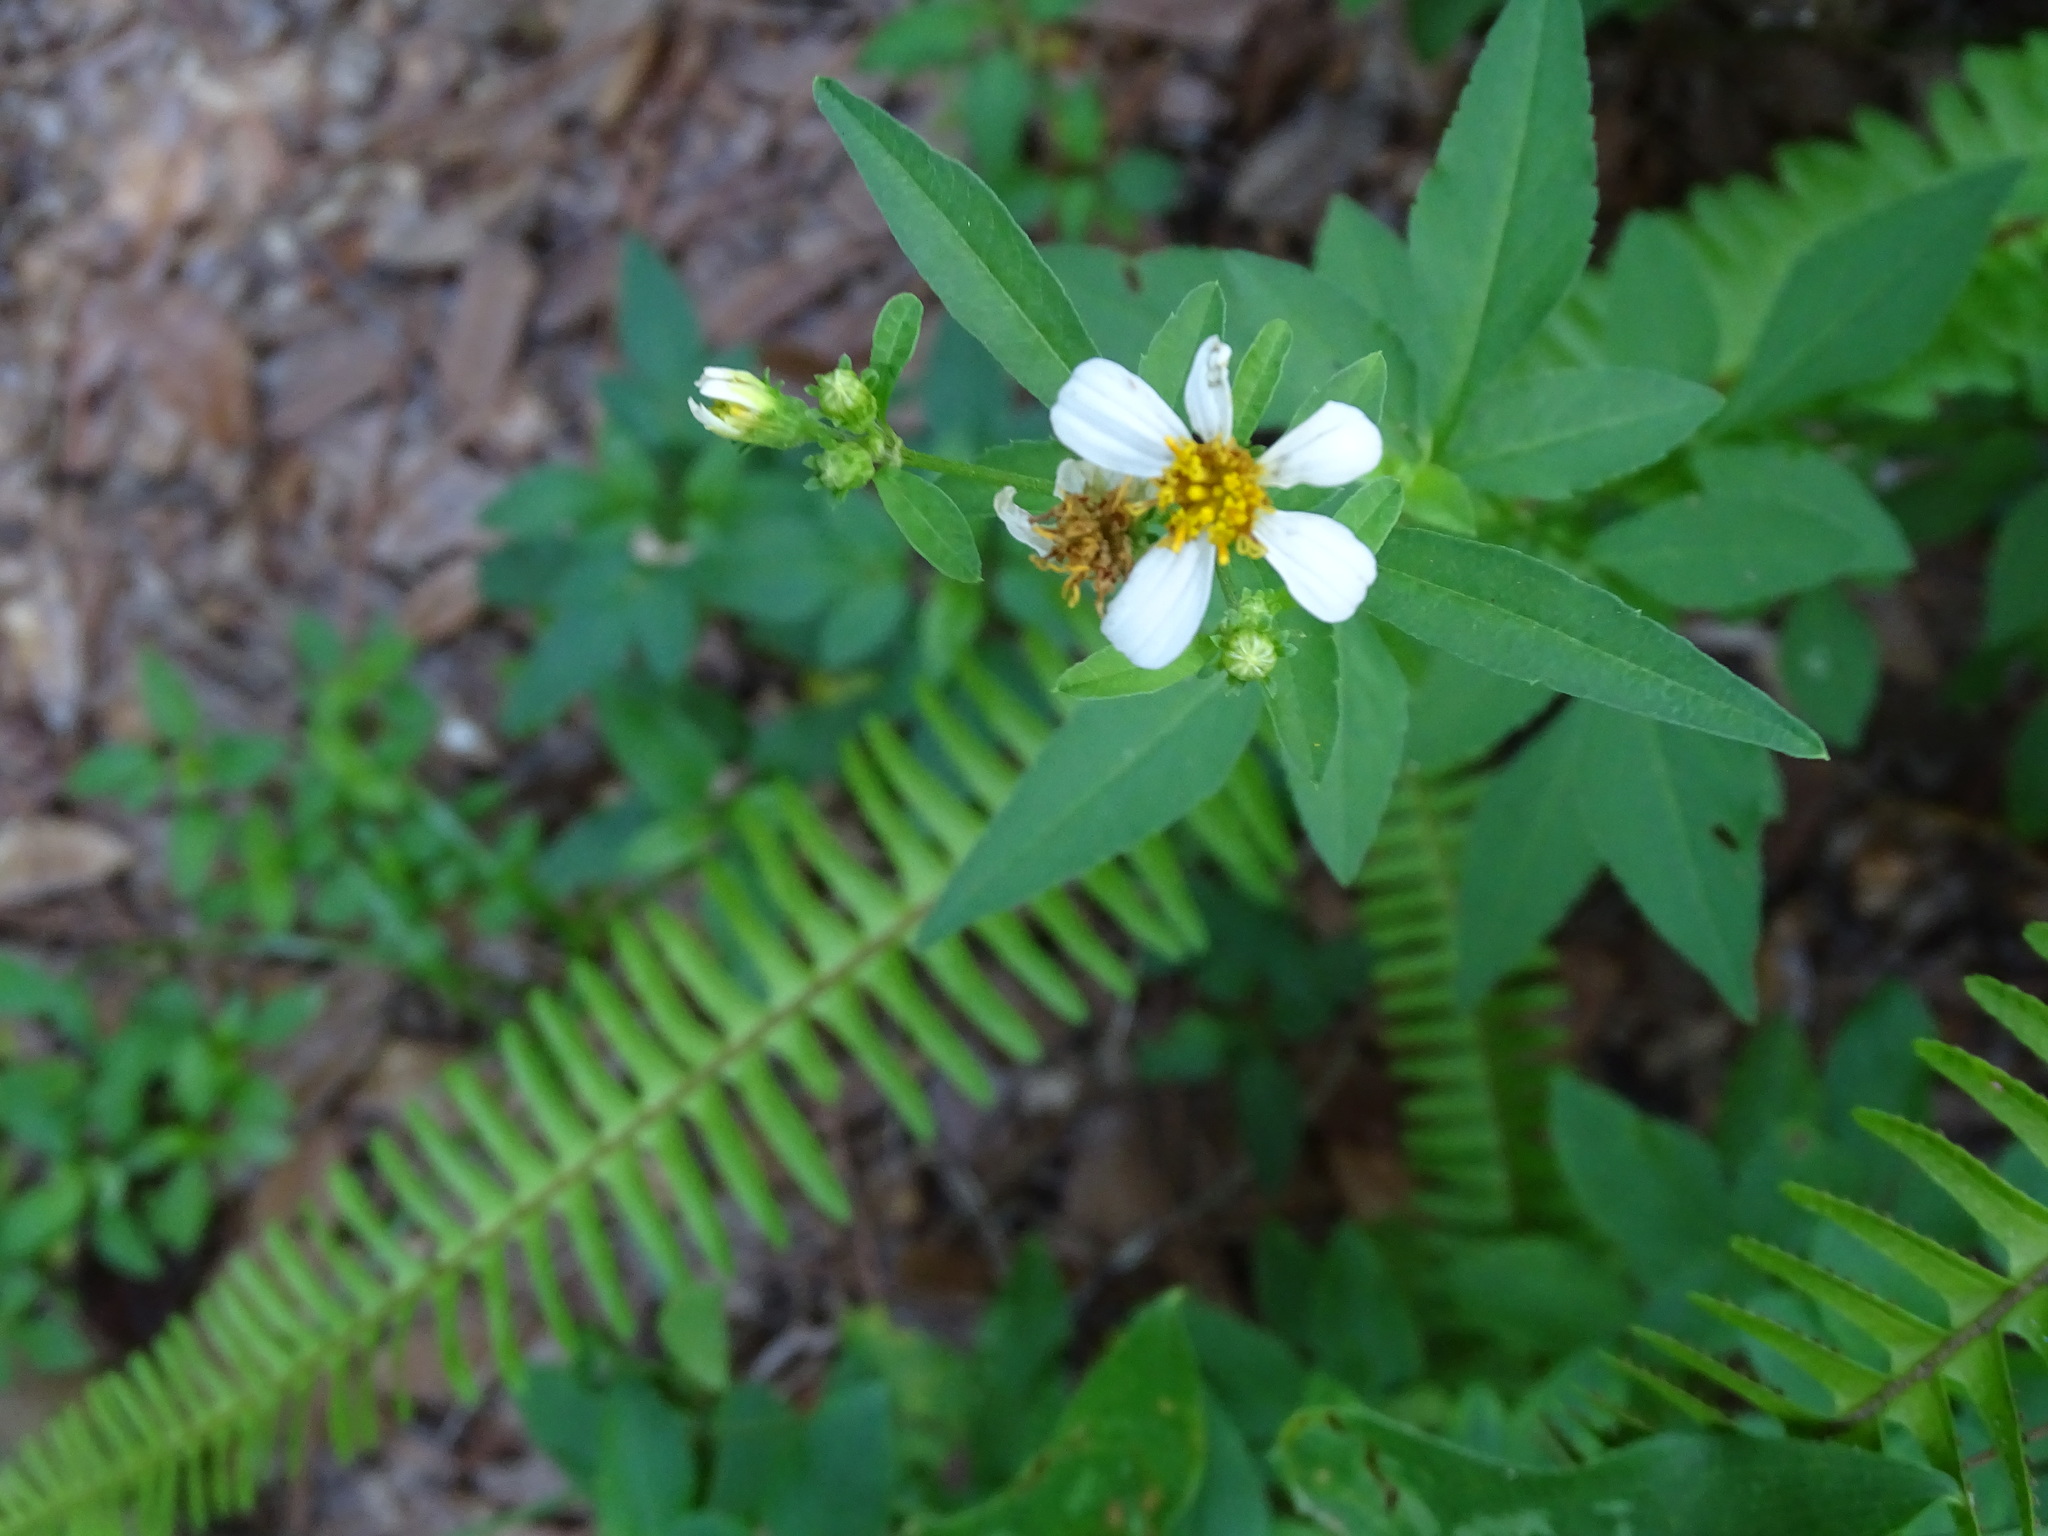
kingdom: Plantae
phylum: Tracheophyta
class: Magnoliopsida
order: Asterales
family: Asteraceae
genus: Bidens
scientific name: Bidens alba
